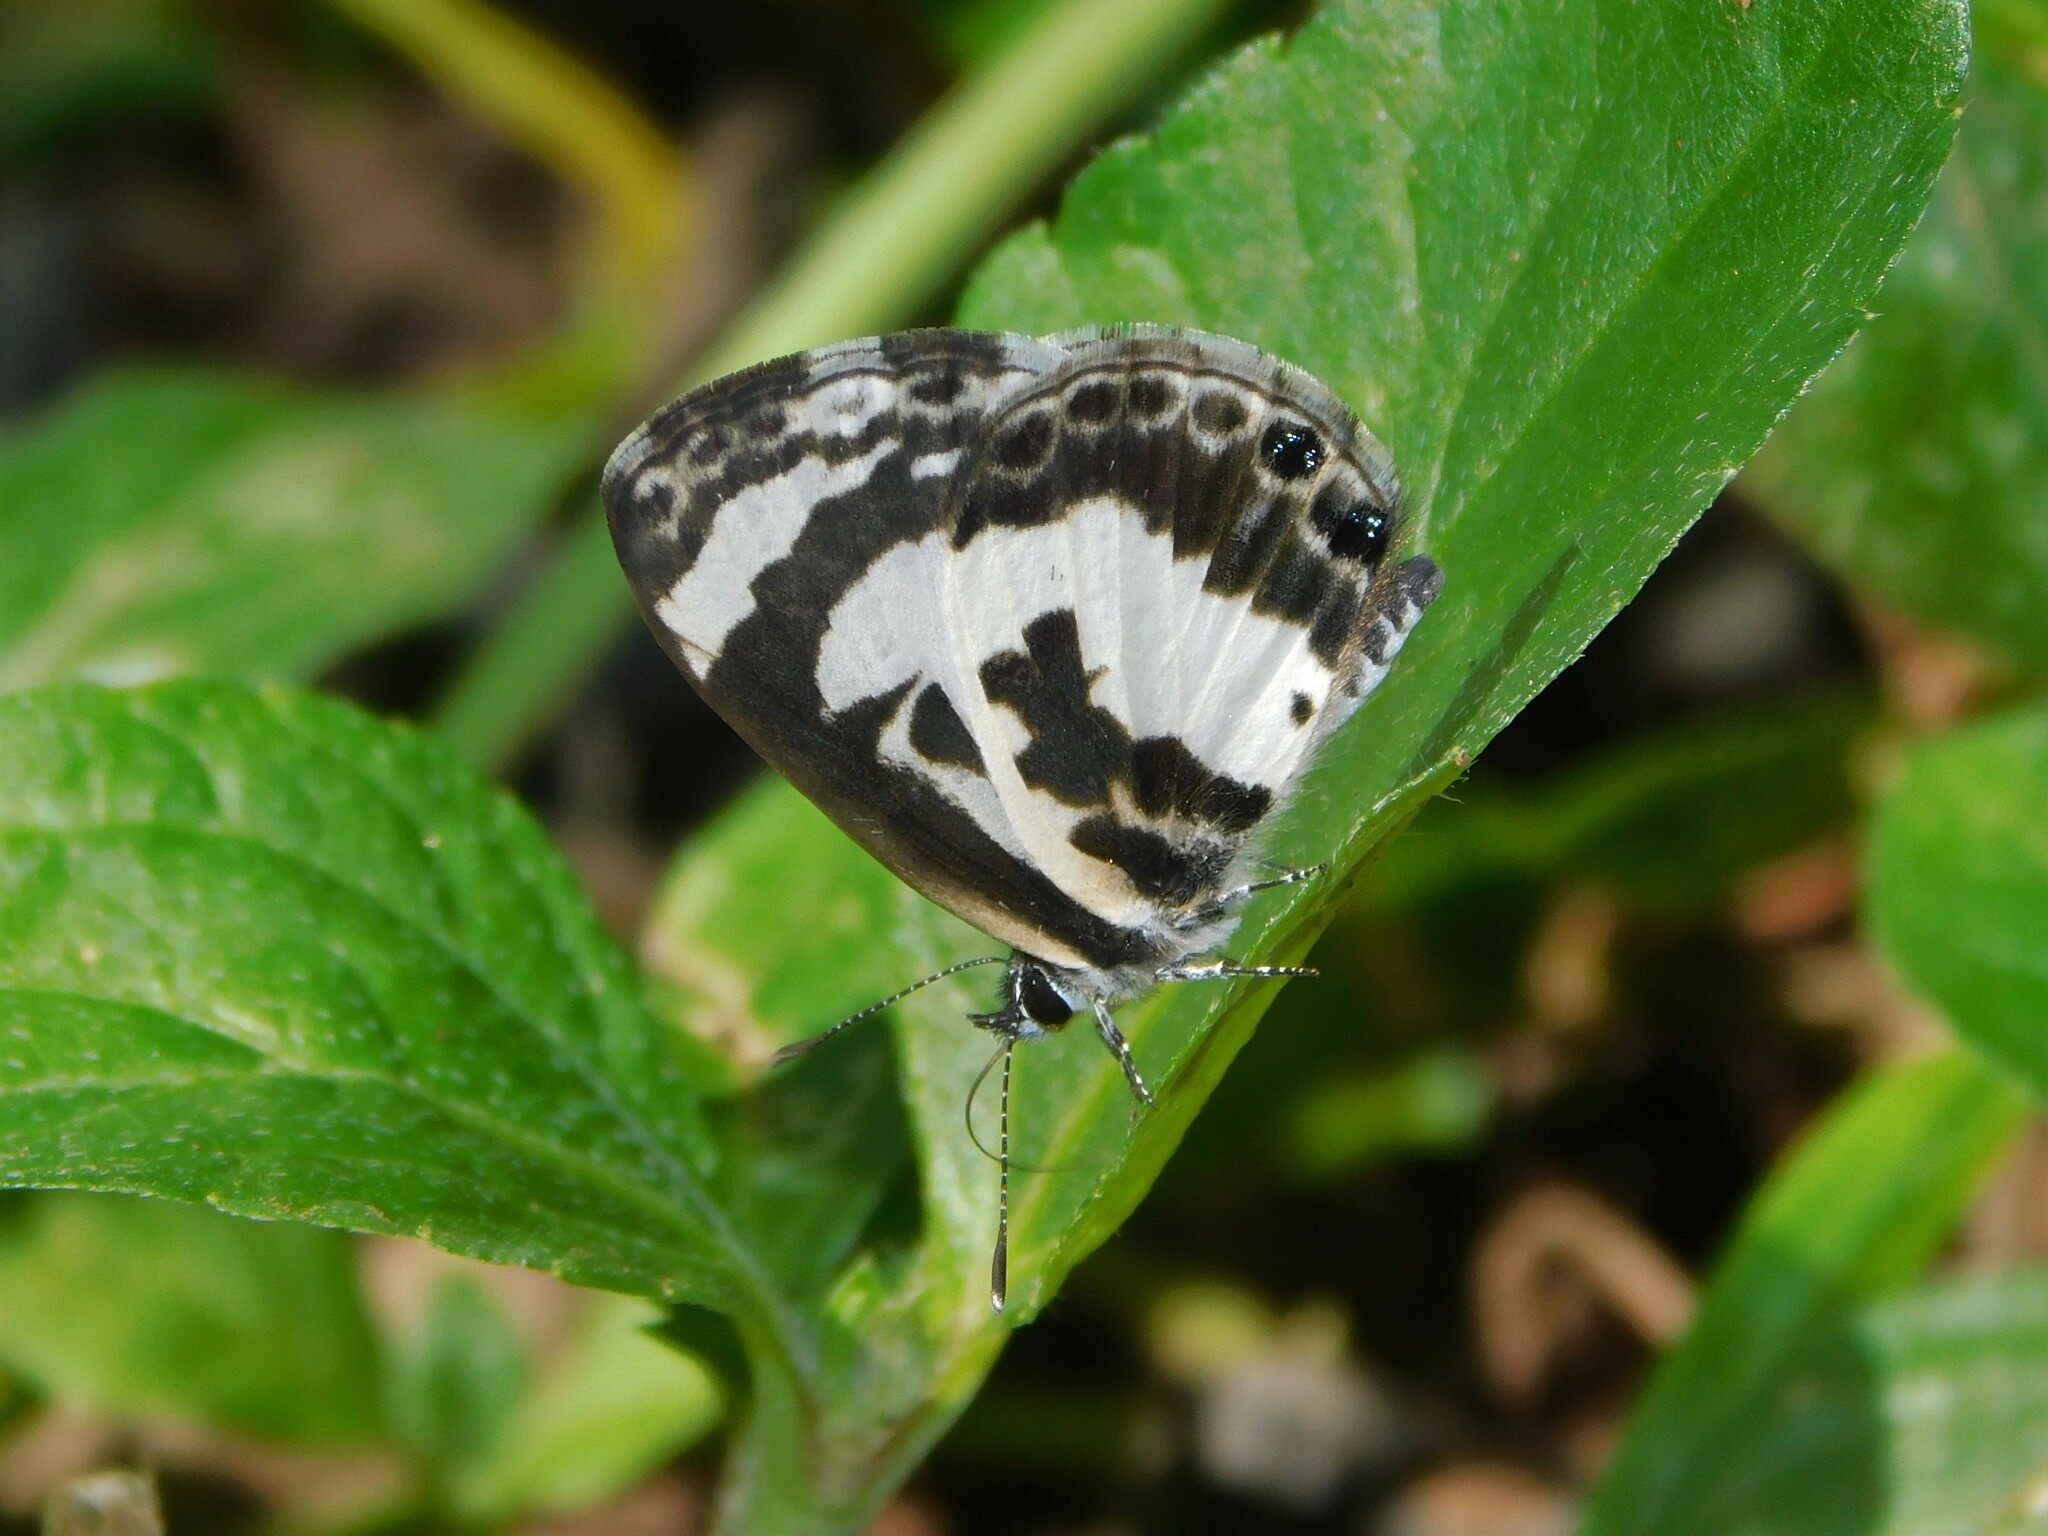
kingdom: Animalia
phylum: Arthropoda
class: Insecta
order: Lepidoptera
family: Lycaenidae
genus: Azanus
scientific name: Azanus isis
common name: White-banded babul blue
